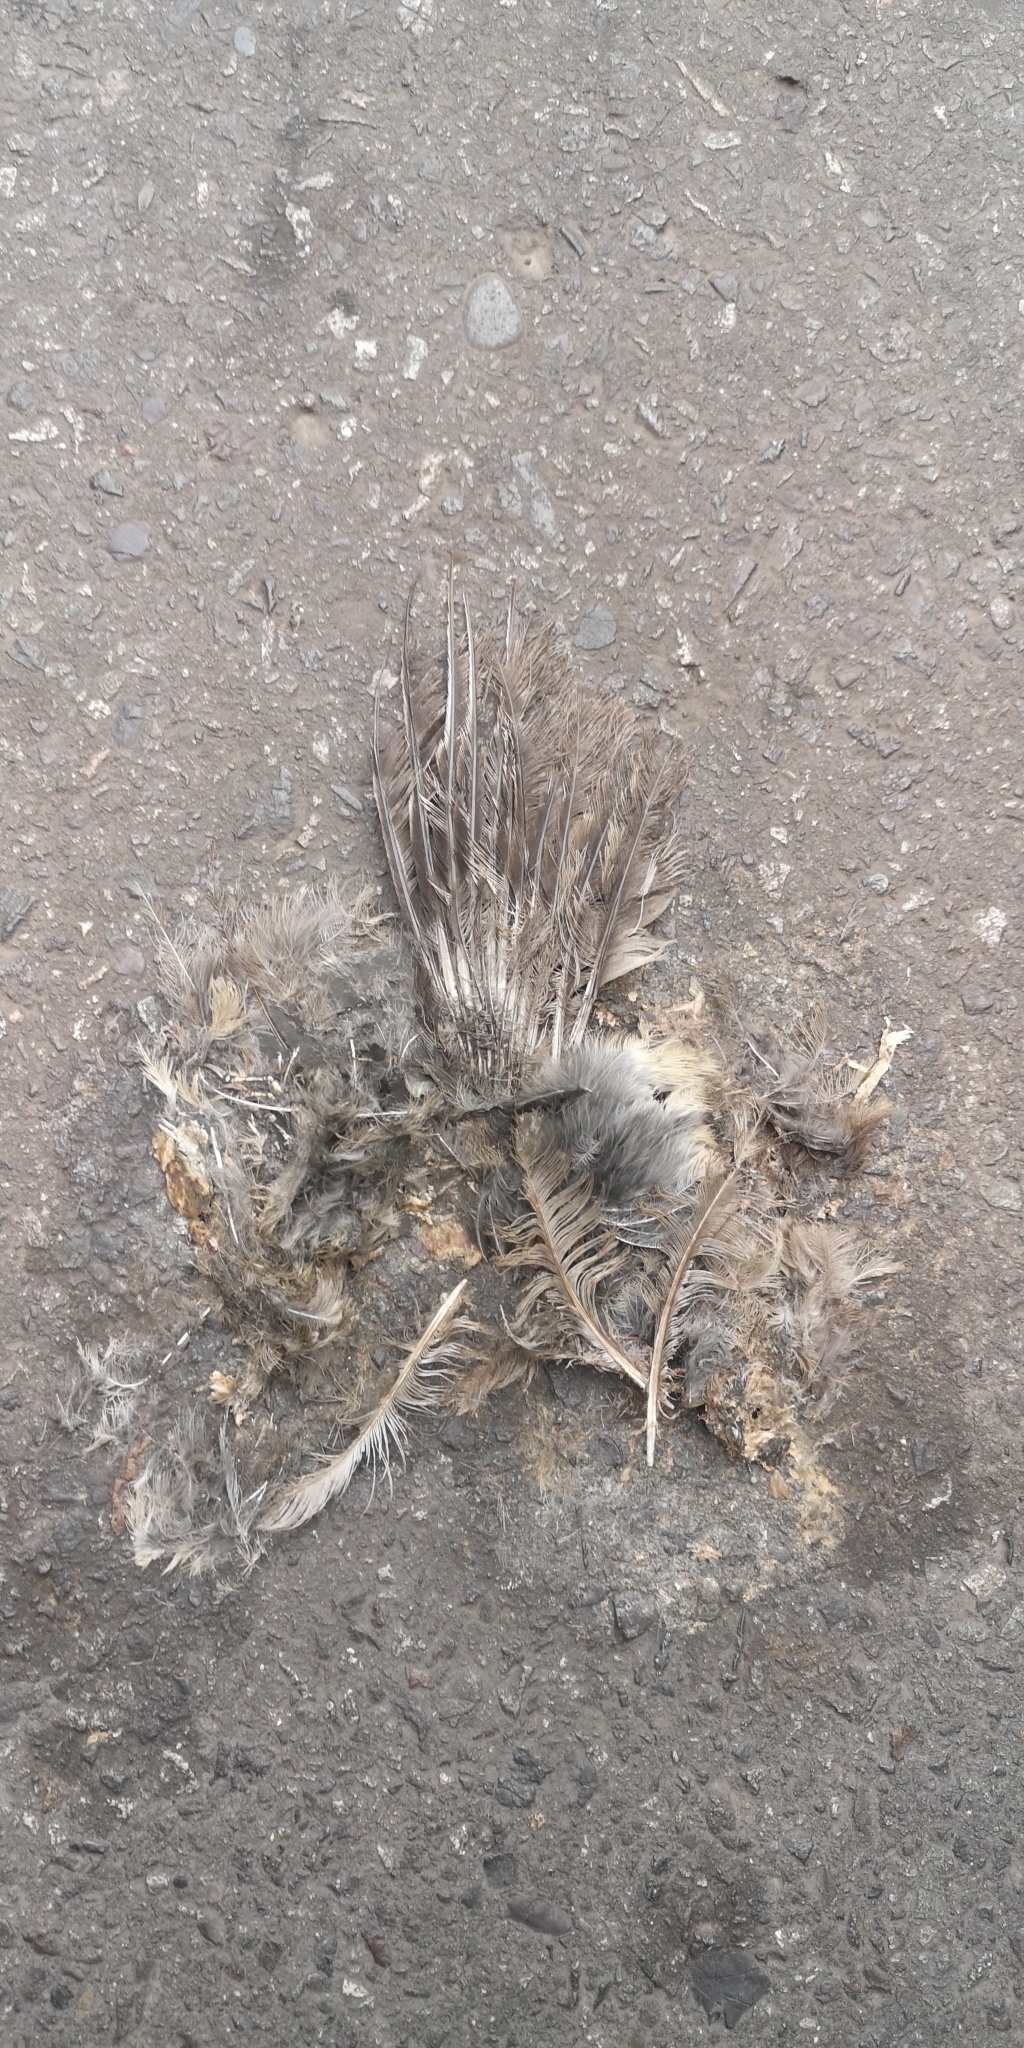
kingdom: Animalia
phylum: Chordata
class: Aves
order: Passeriformes
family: Furnariidae
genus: Leptasthenura
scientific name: Leptasthenura aegithaloides
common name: Plain-mantled tit-spinetail
